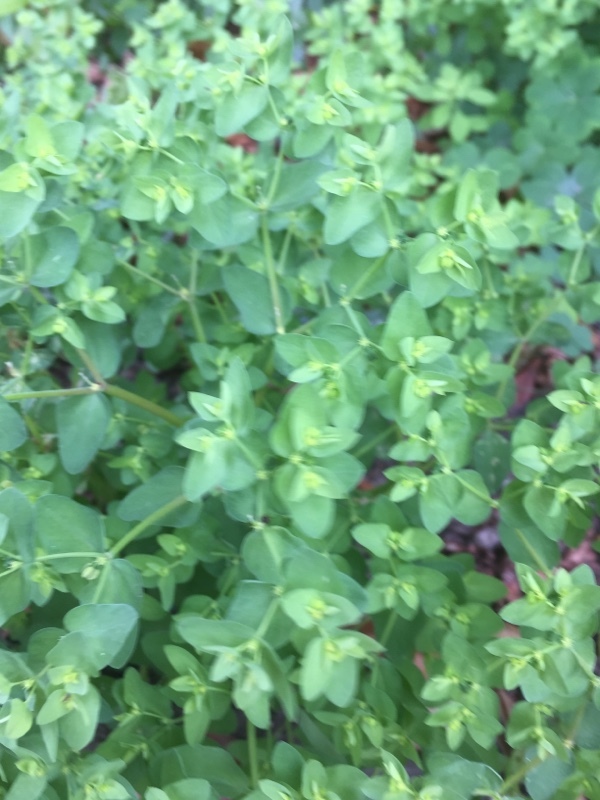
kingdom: Plantae
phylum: Tracheophyta
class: Magnoliopsida
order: Malpighiales
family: Euphorbiaceae
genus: Euphorbia
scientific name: Euphorbia peplus
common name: Petty spurge
